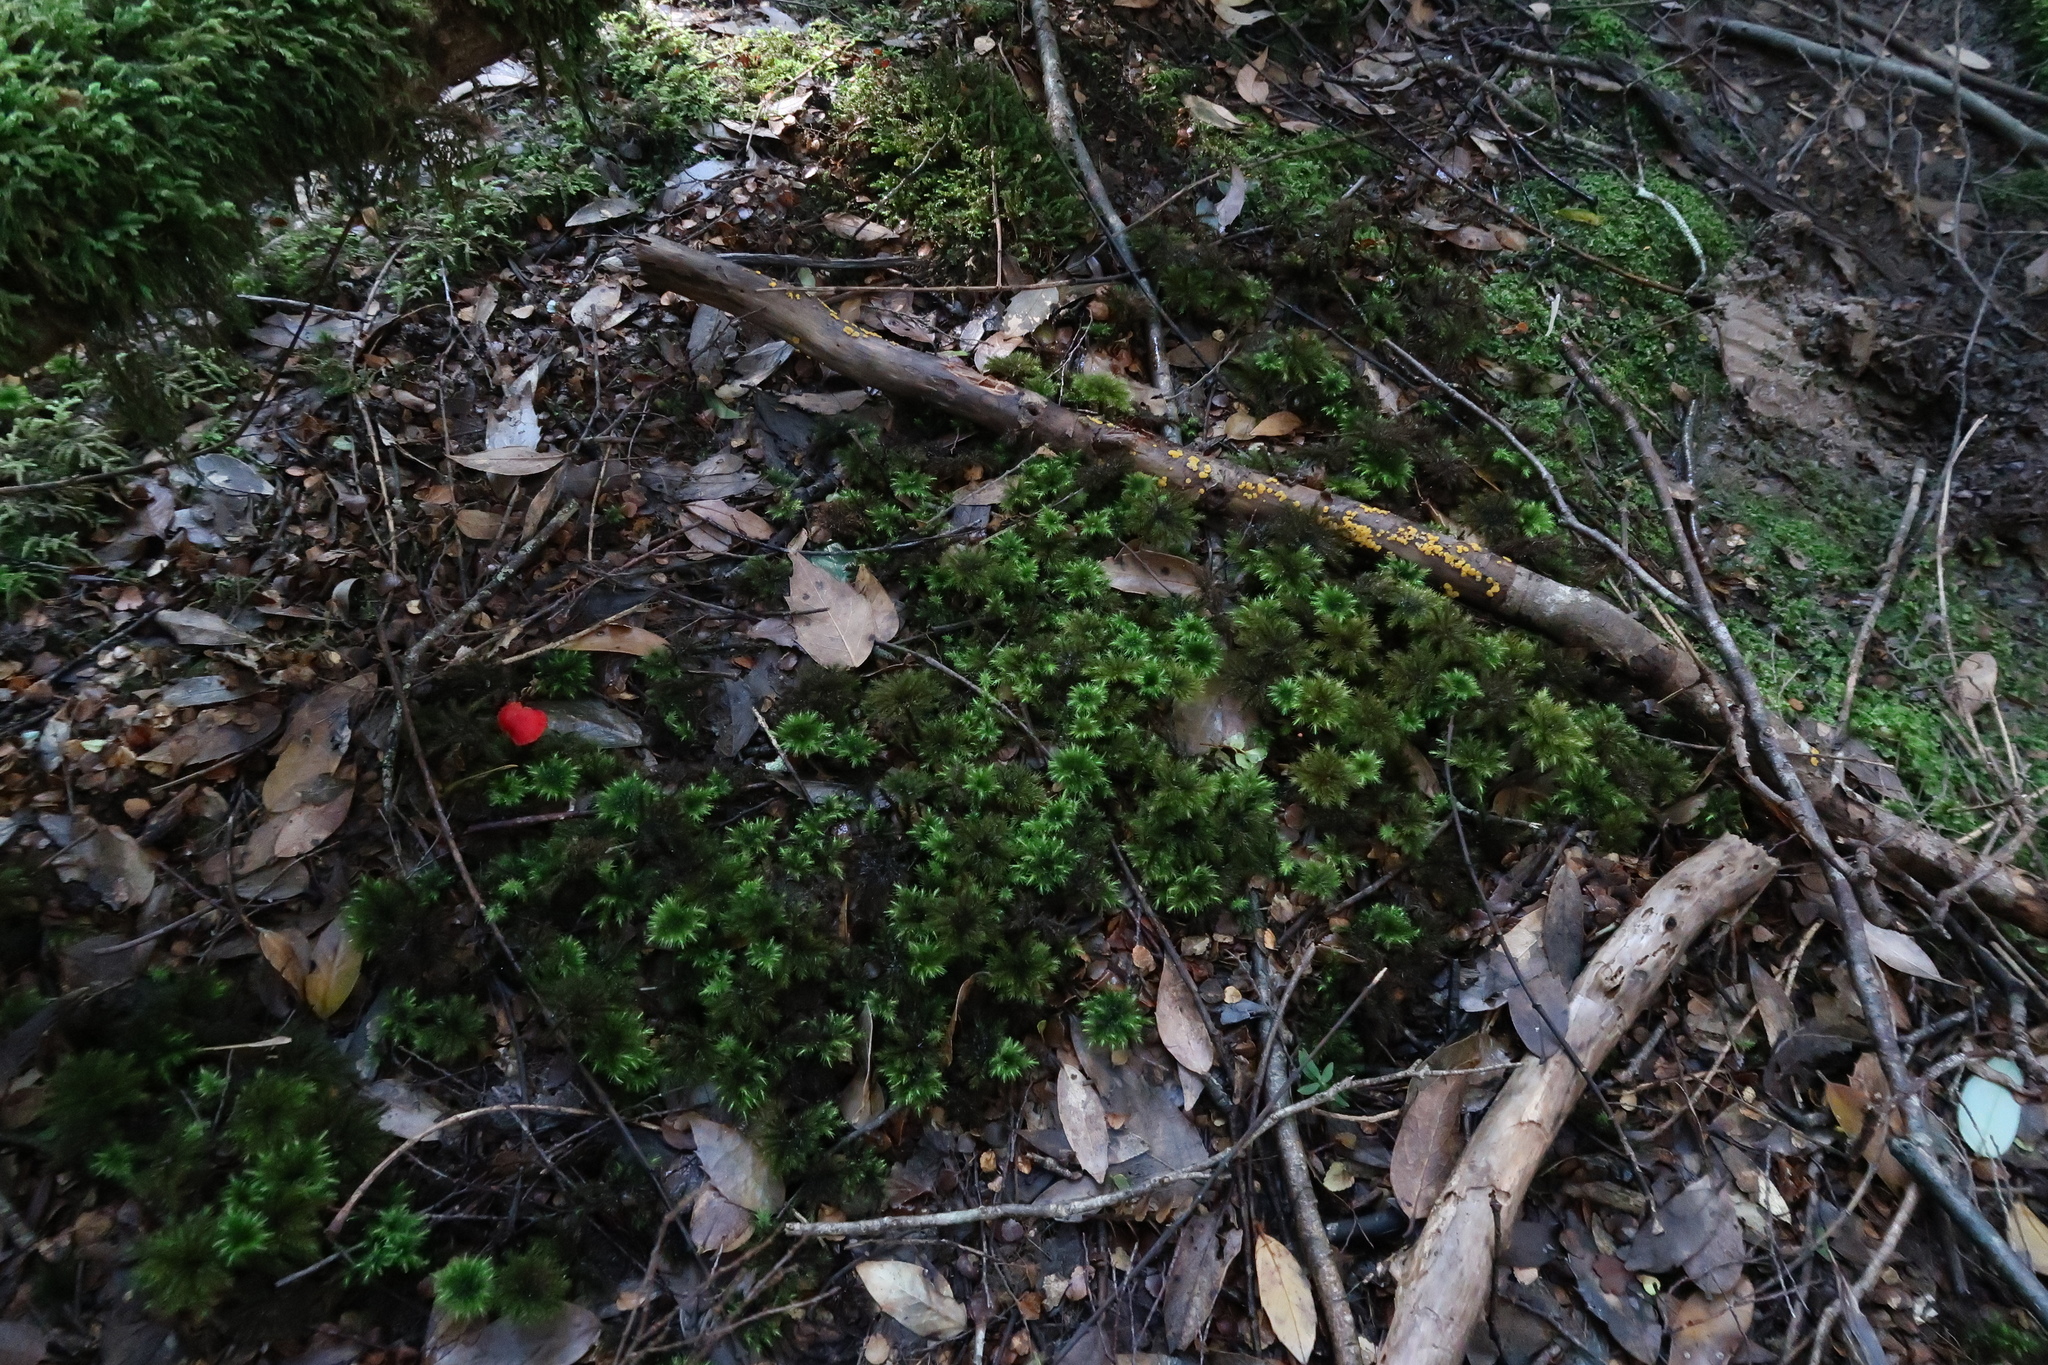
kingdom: Fungi
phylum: Basidiomycota
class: Agaricomycetes
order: Agaricales
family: Hygrophoraceae
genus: Hygrocybe
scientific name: Hygrocybe firma
